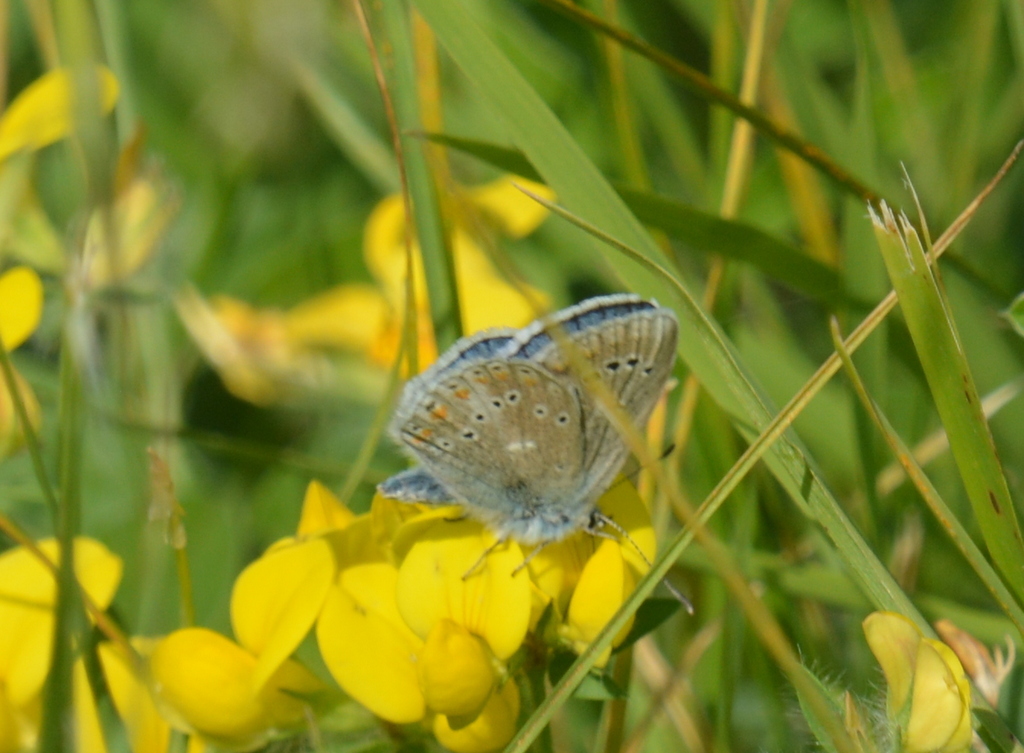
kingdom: Animalia
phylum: Arthropoda
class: Insecta
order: Lepidoptera
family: Lycaenidae
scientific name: Lycaenidae
